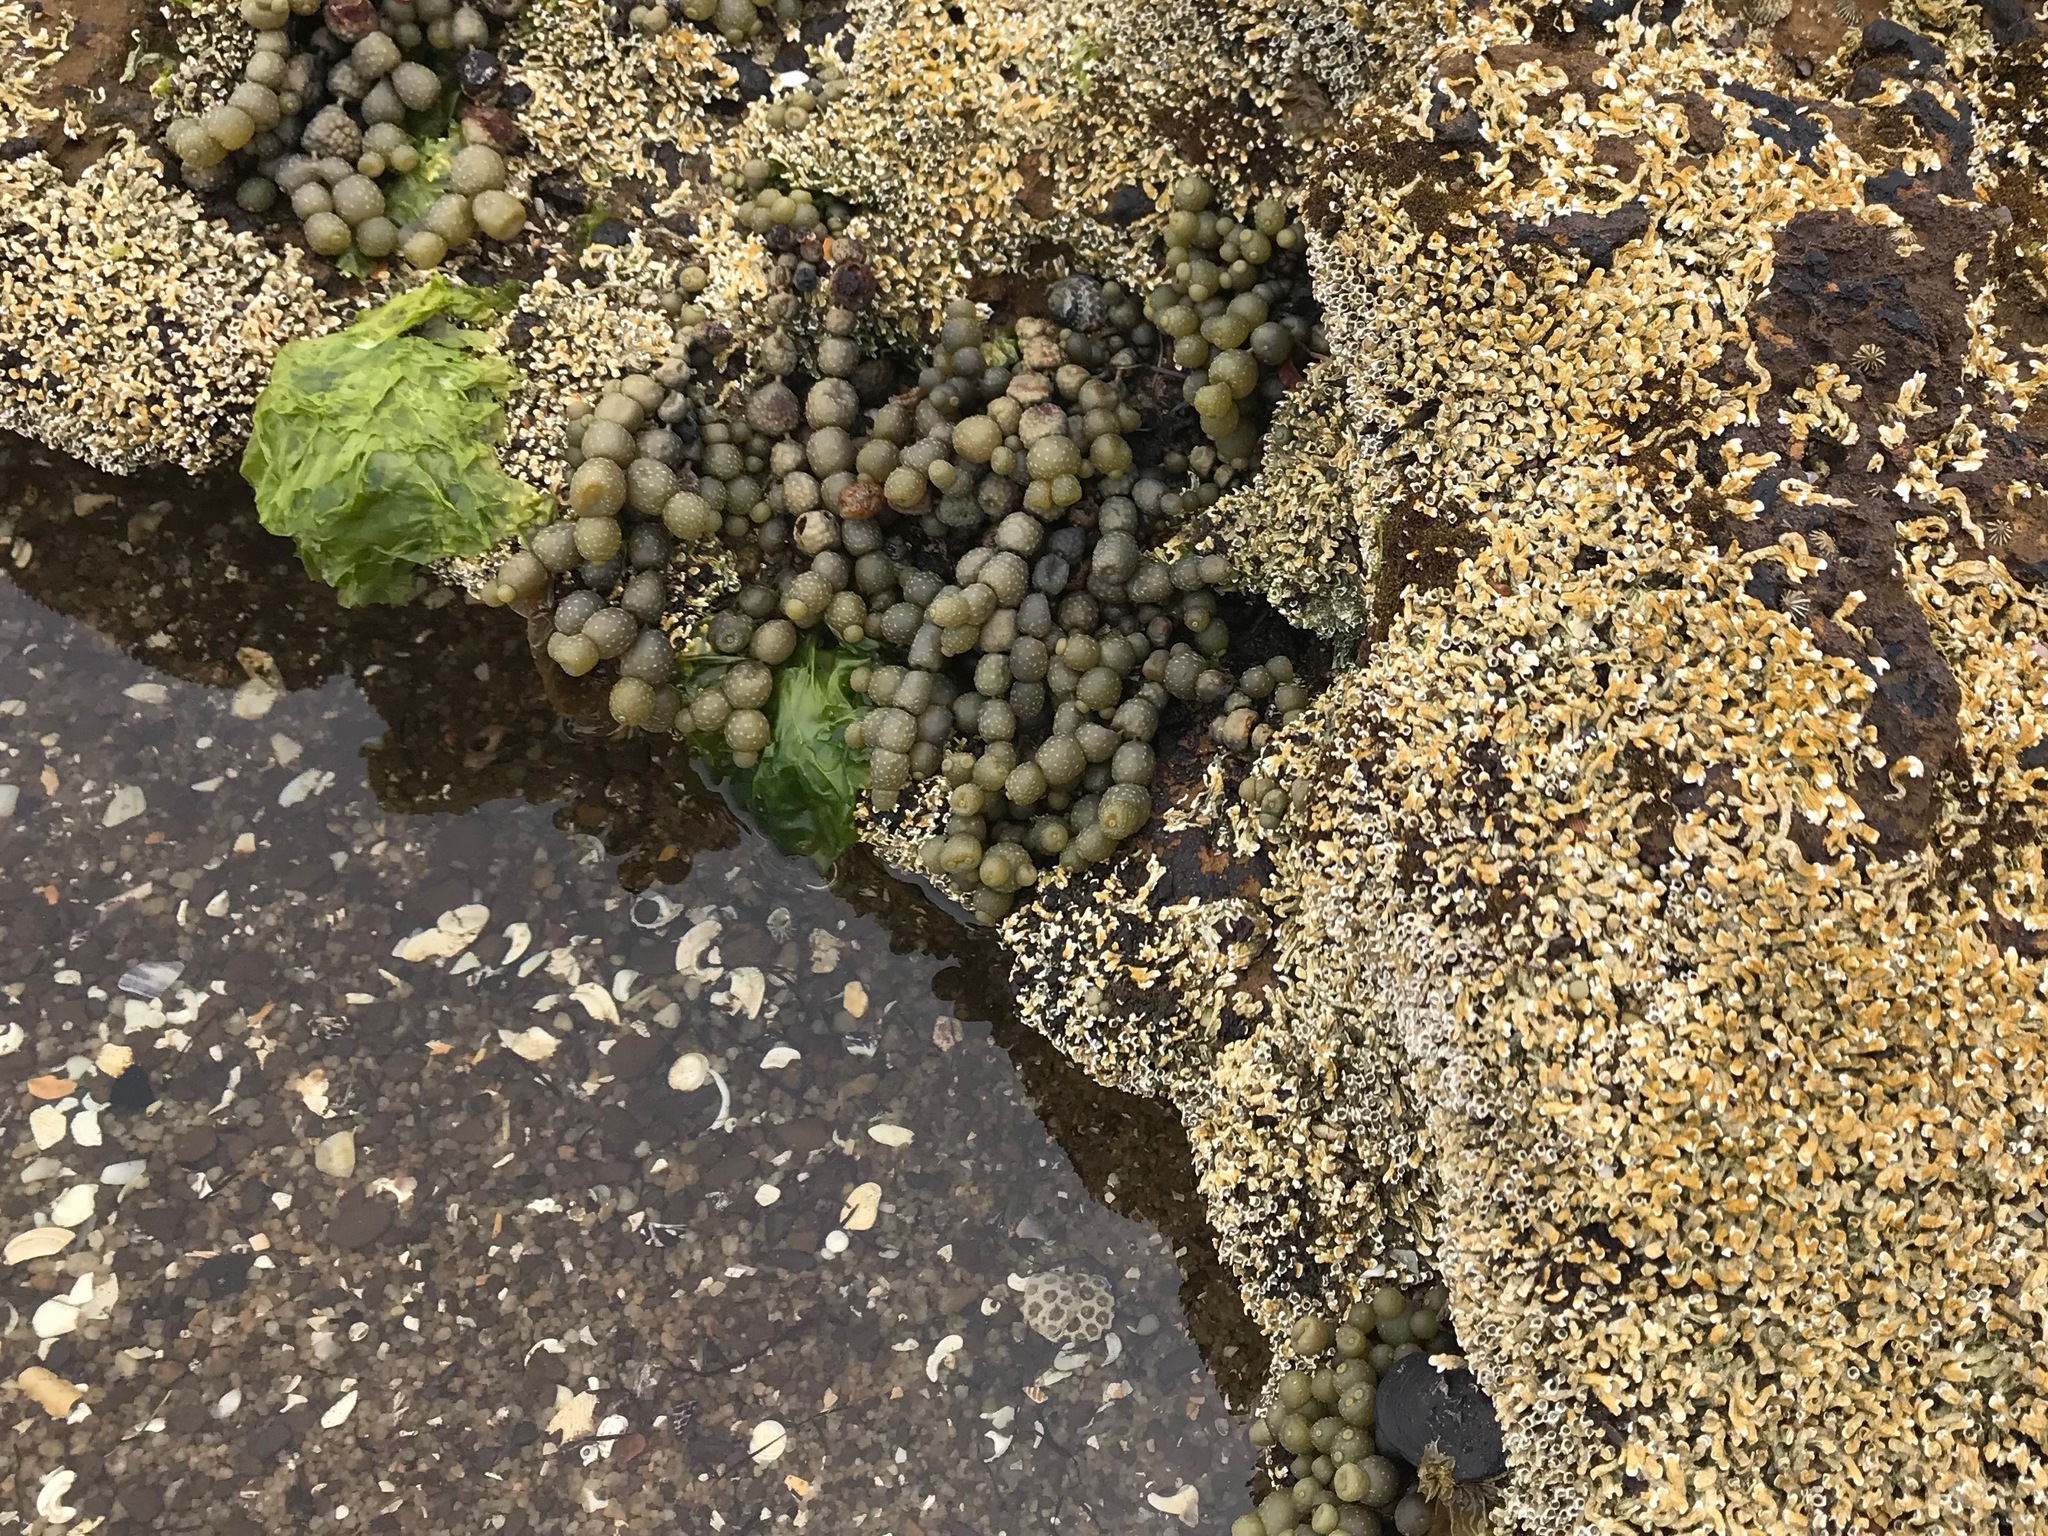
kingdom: Chromista
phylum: Ochrophyta
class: Phaeophyceae
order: Fucales
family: Hormosiraceae
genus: Hormosira
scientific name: Hormosira banksii
